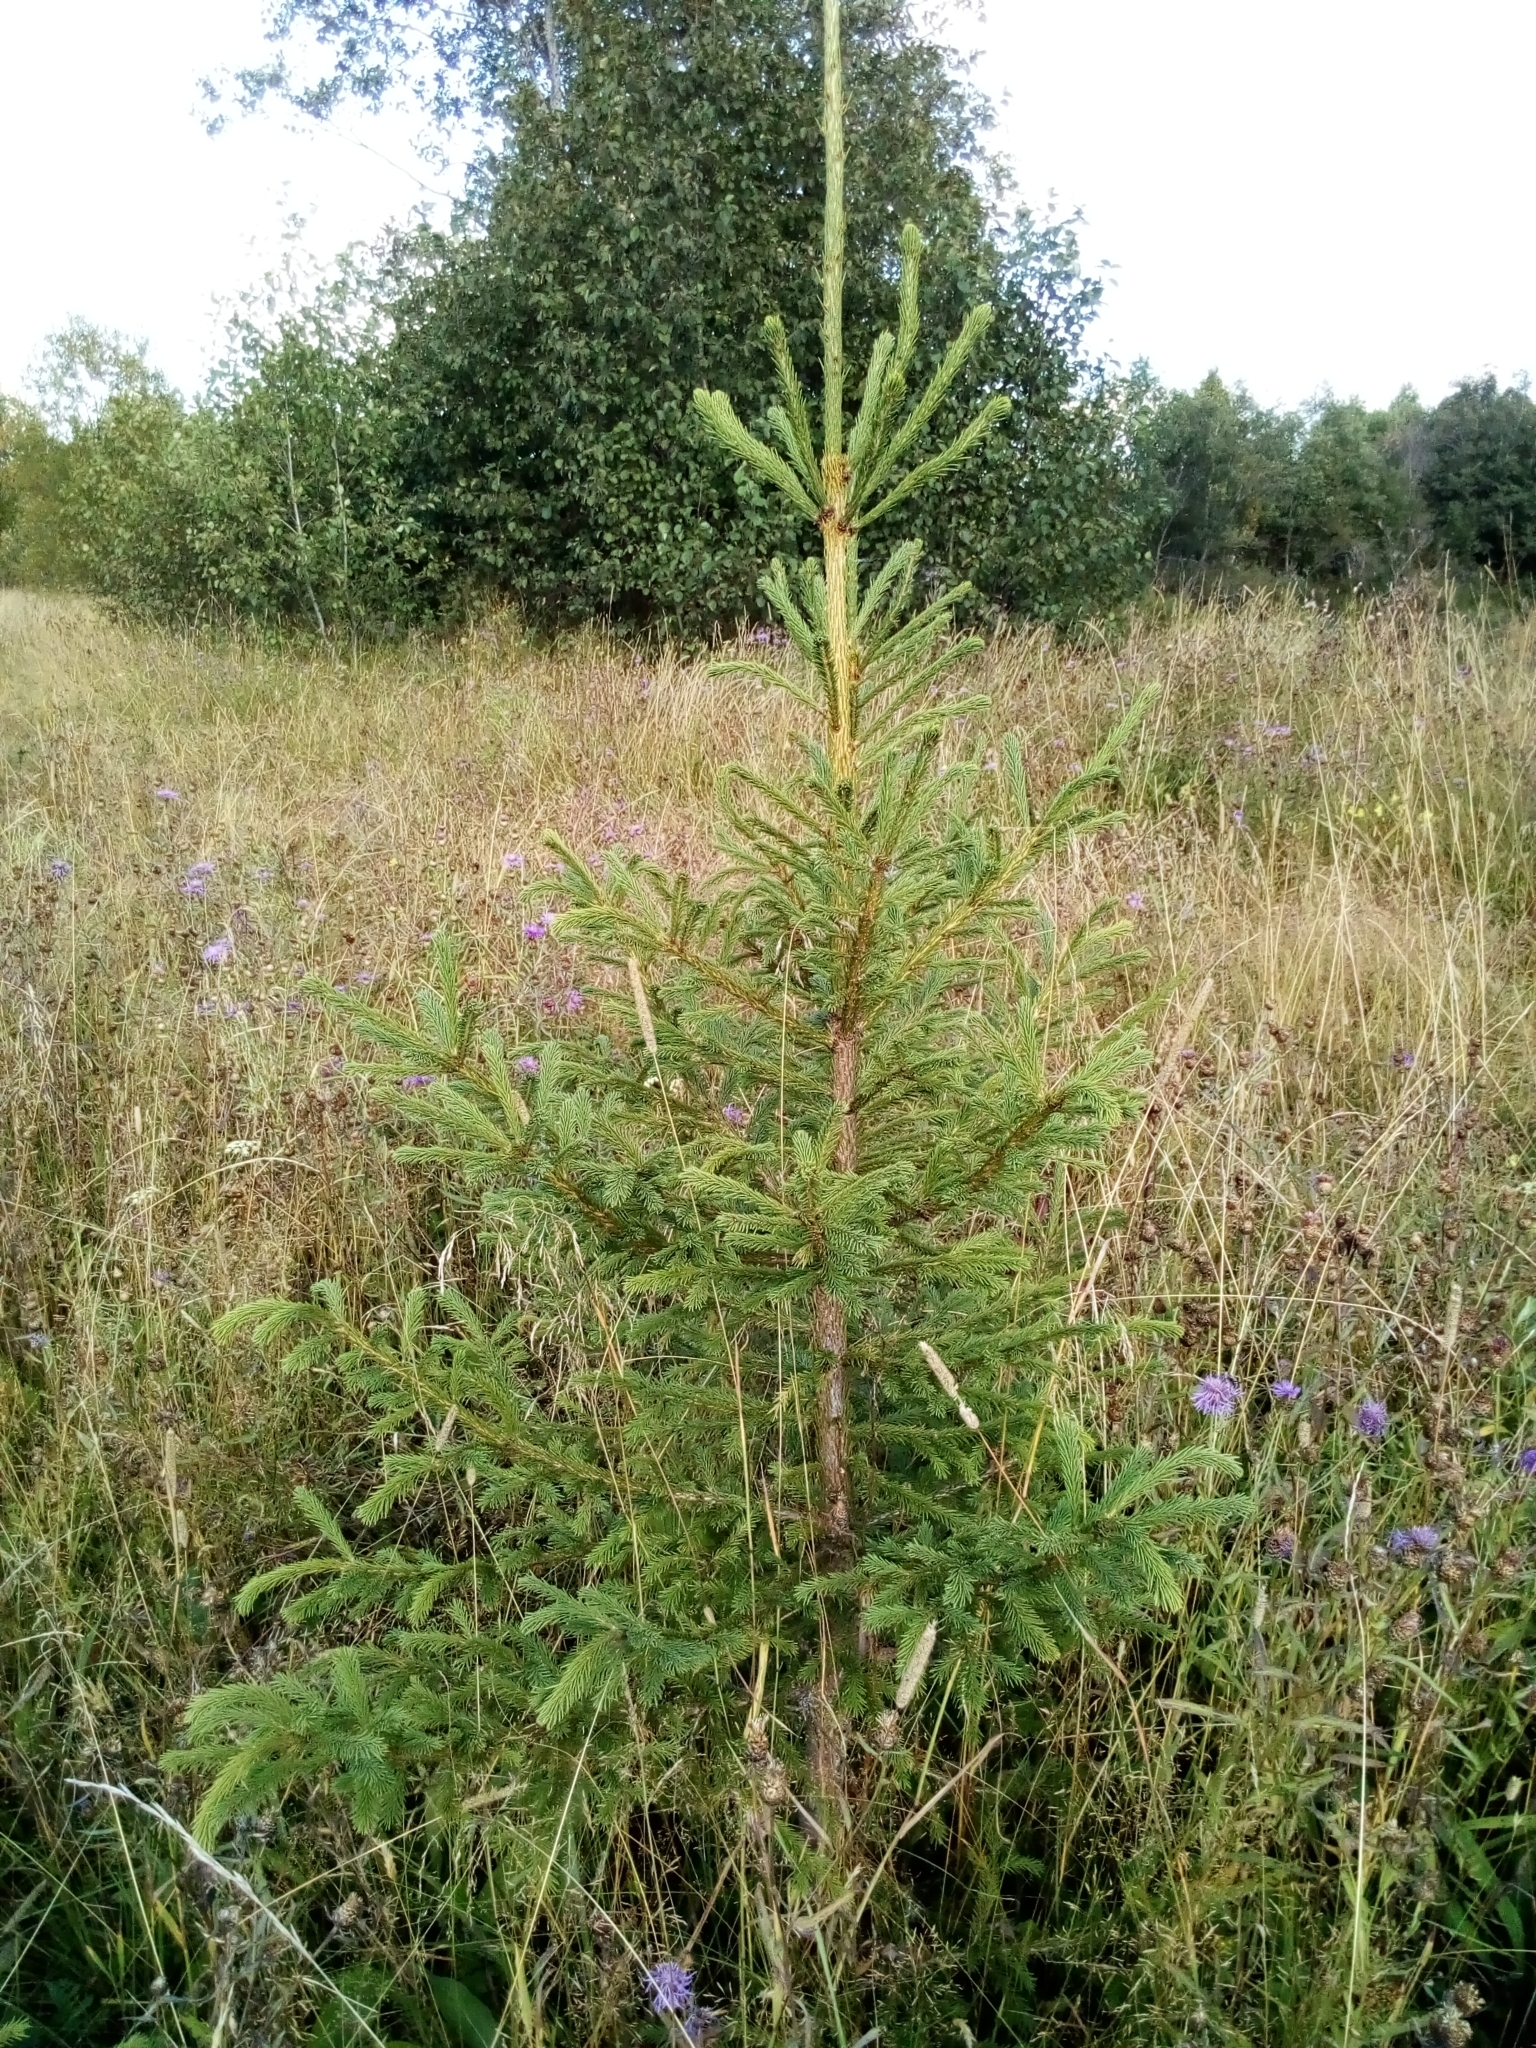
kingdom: Plantae
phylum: Tracheophyta
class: Pinopsida
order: Pinales
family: Pinaceae
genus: Picea
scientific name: Picea
